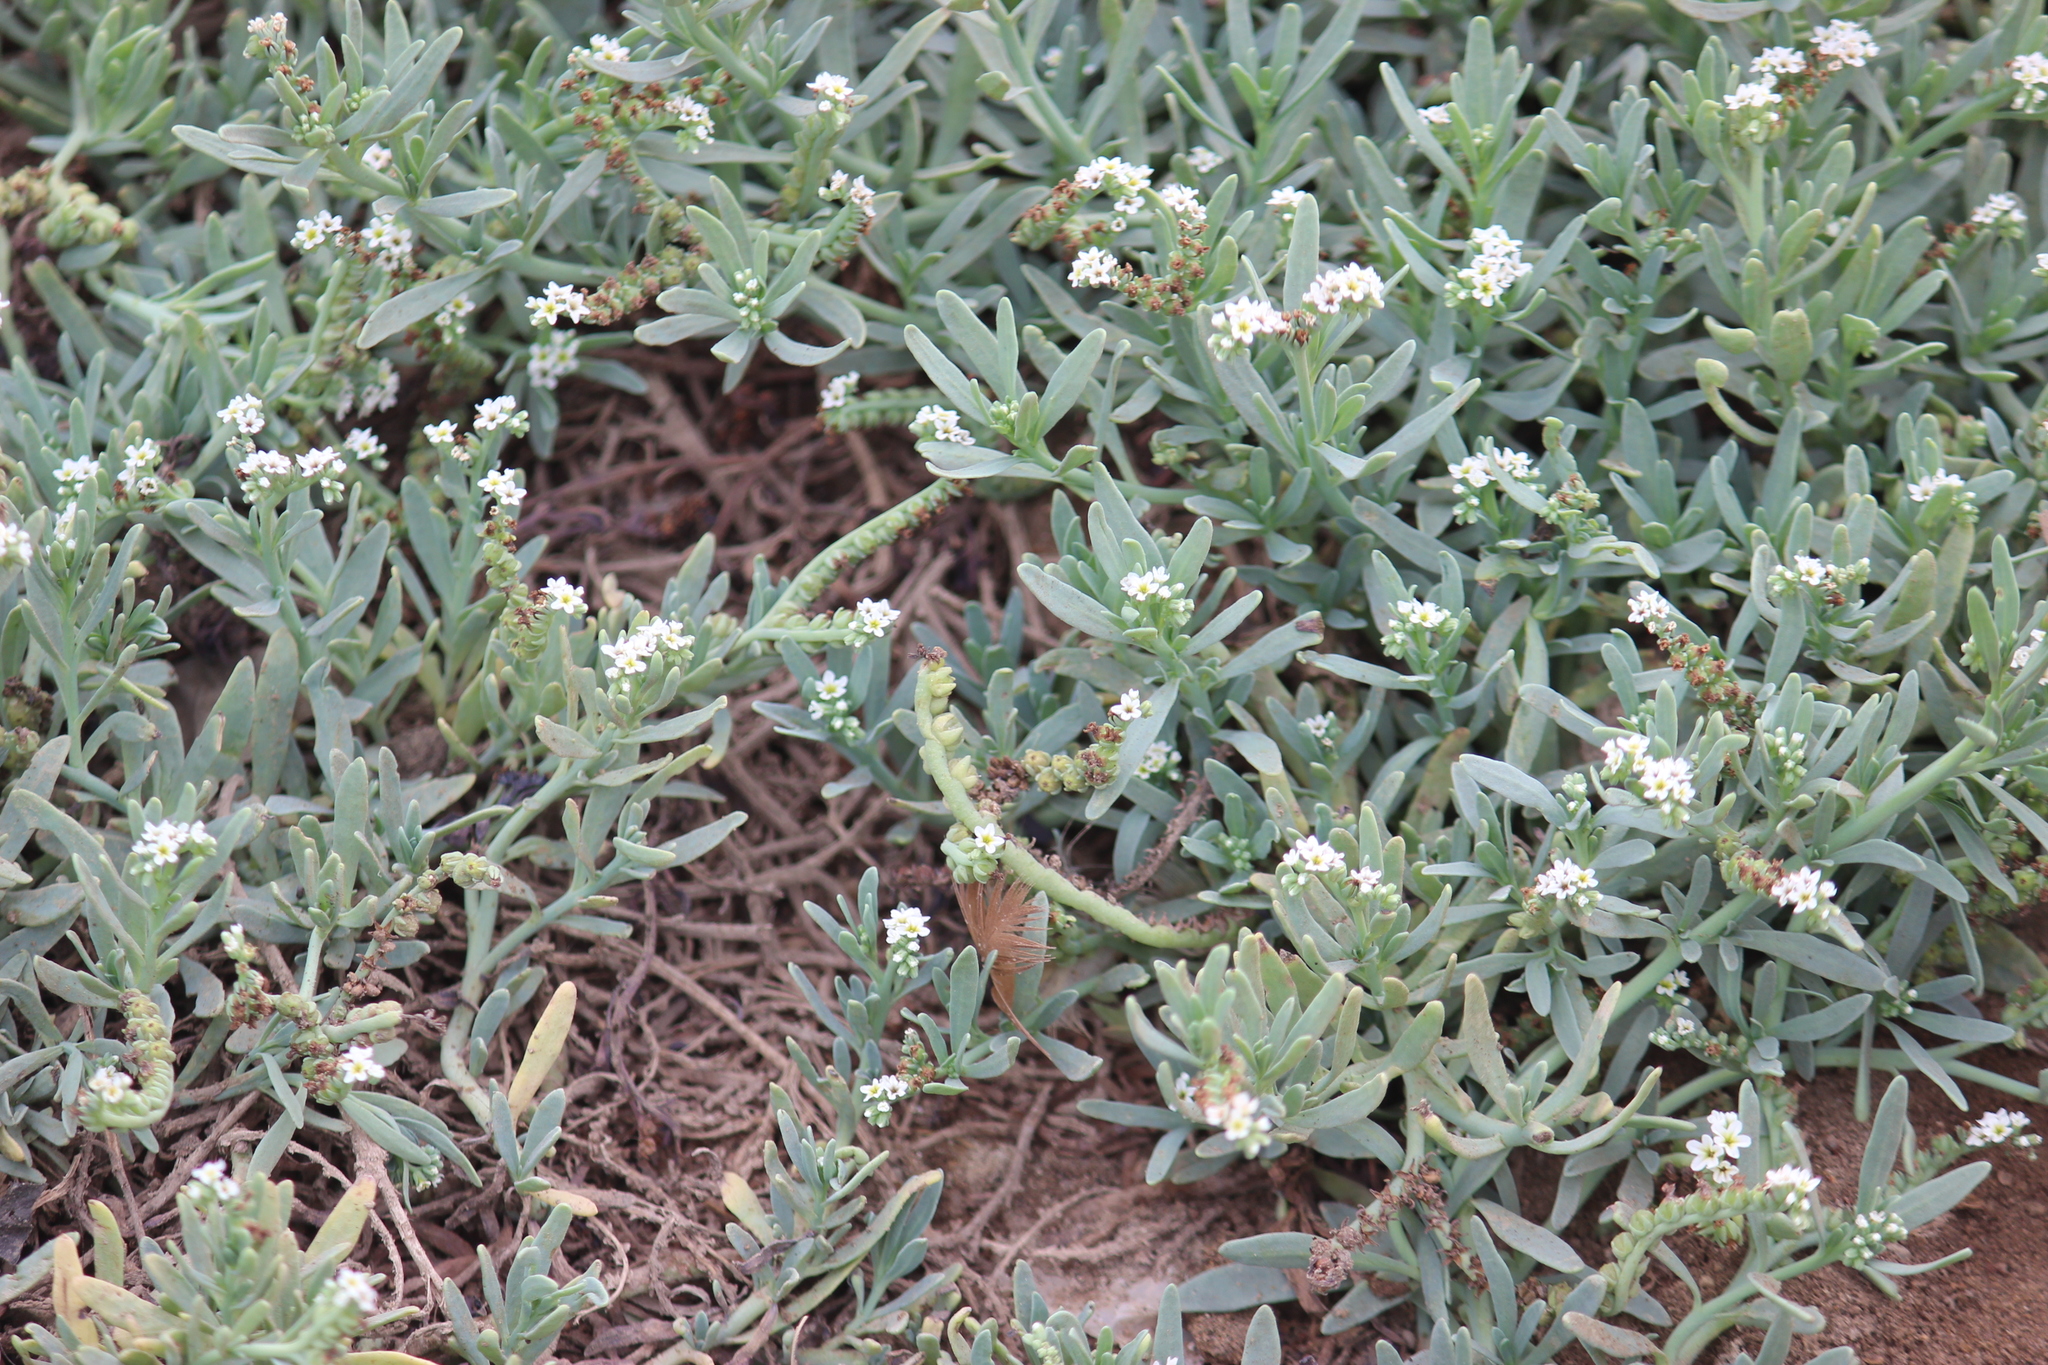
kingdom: Plantae
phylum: Tracheophyta
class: Magnoliopsida
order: Boraginales
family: Heliotropiaceae
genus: Heliotropium
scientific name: Heliotropium curassavicum
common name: Seaside heliotrope
